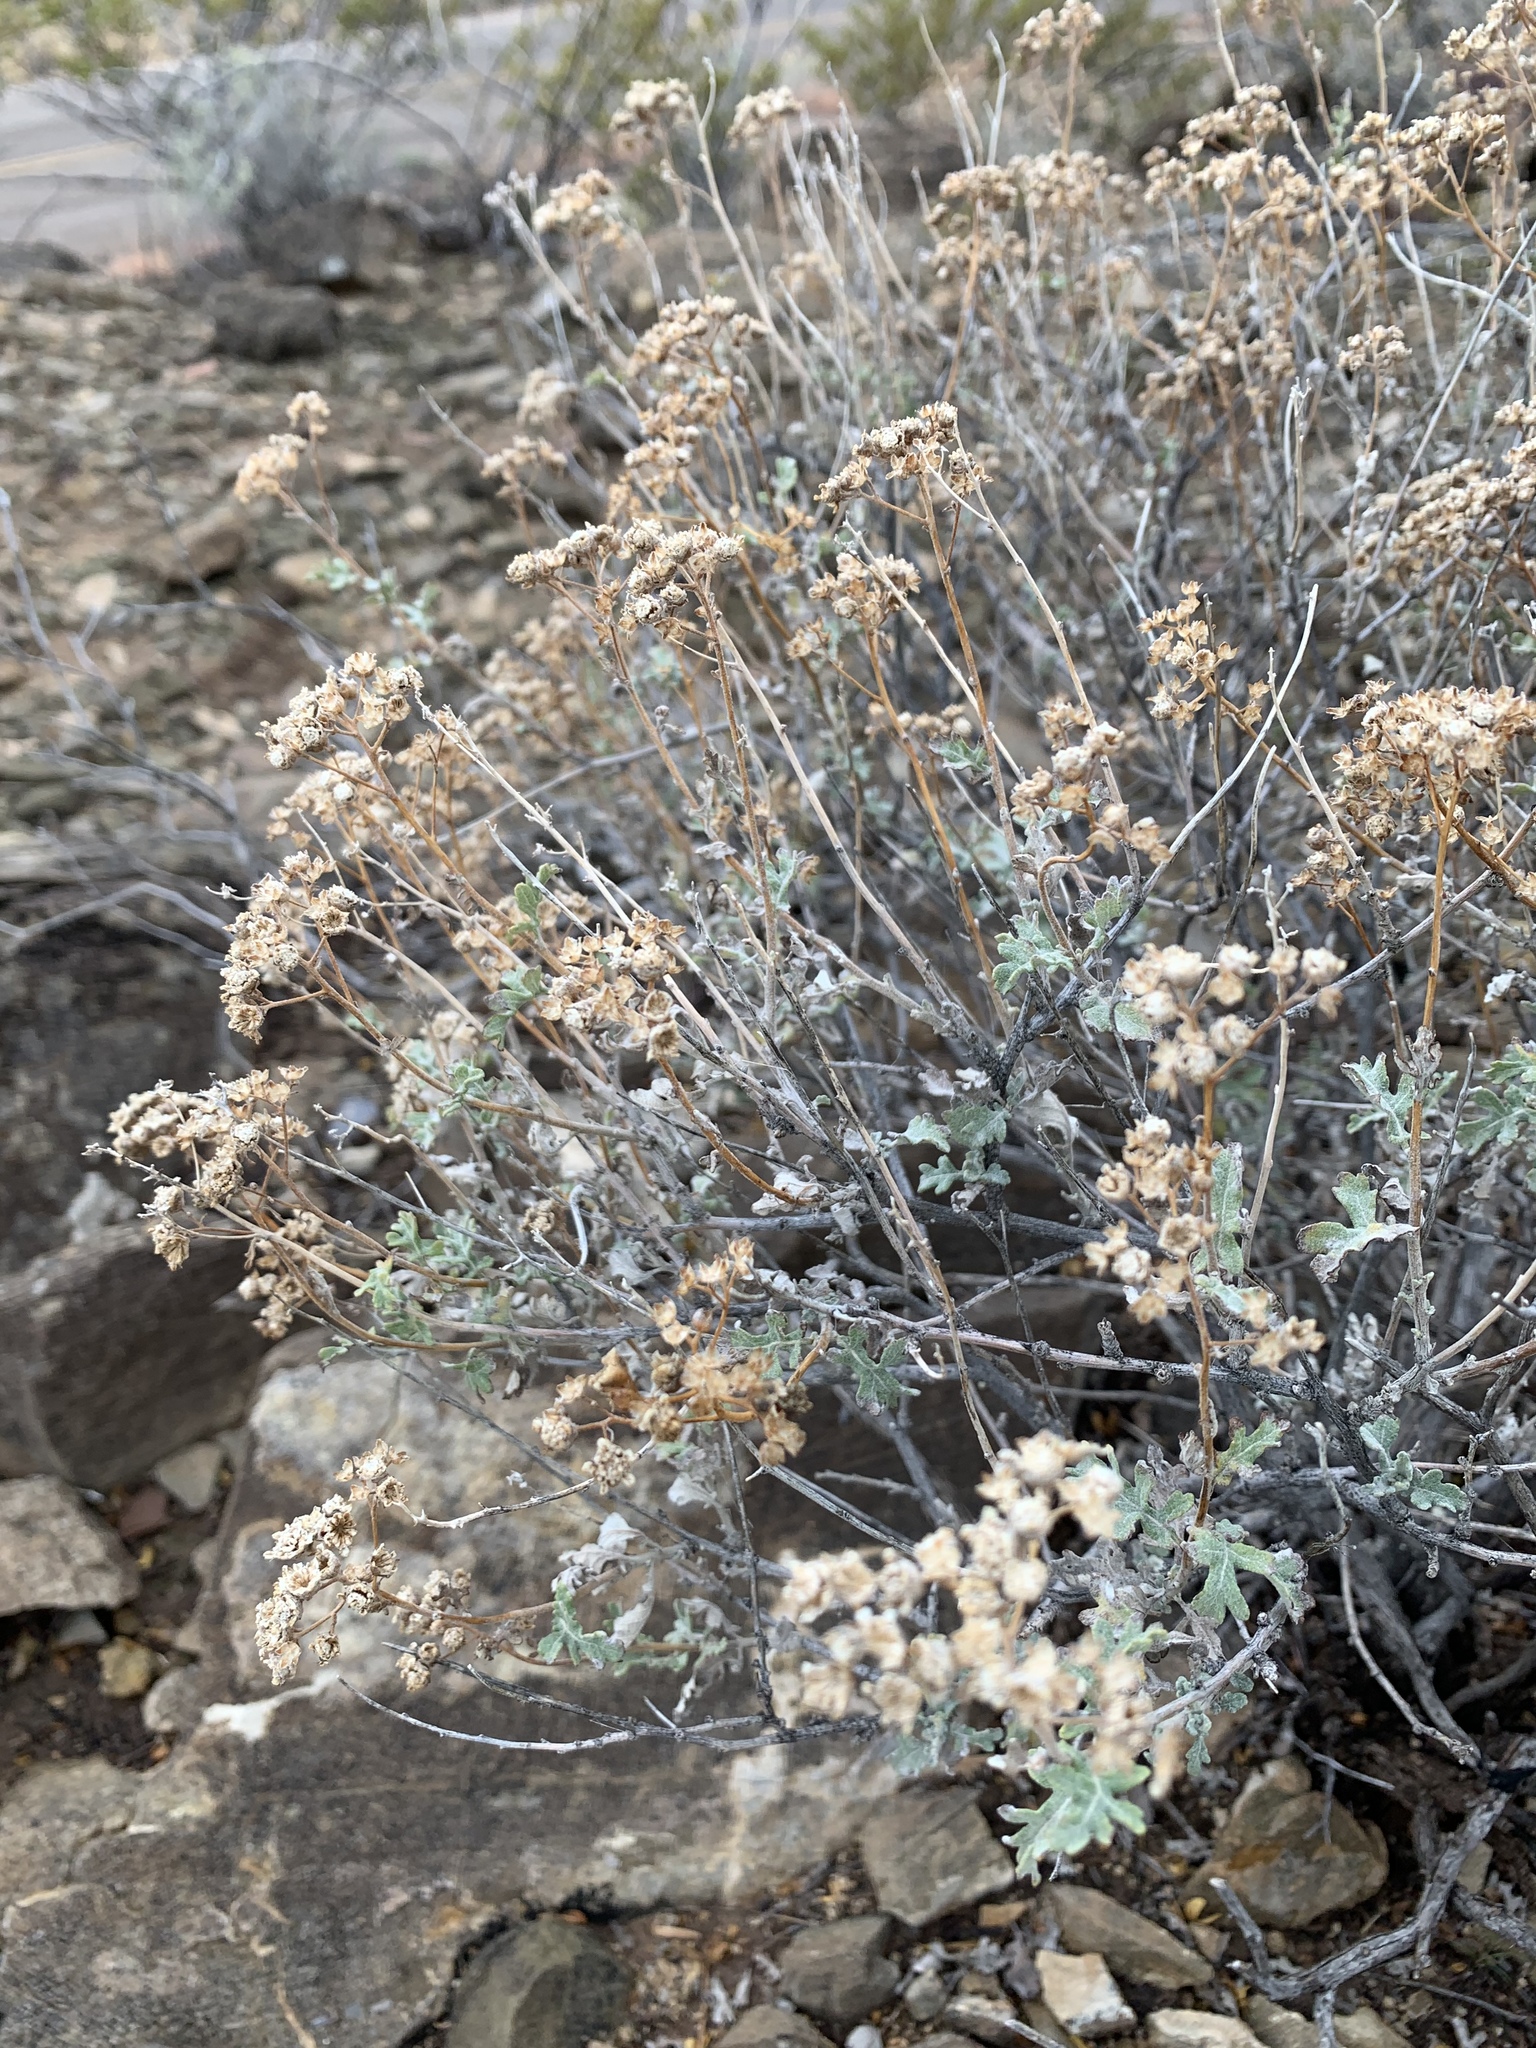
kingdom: Plantae
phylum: Tracheophyta
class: Magnoliopsida
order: Asterales
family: Asteraceae
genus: Parthenium
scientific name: Parthenium incanum
